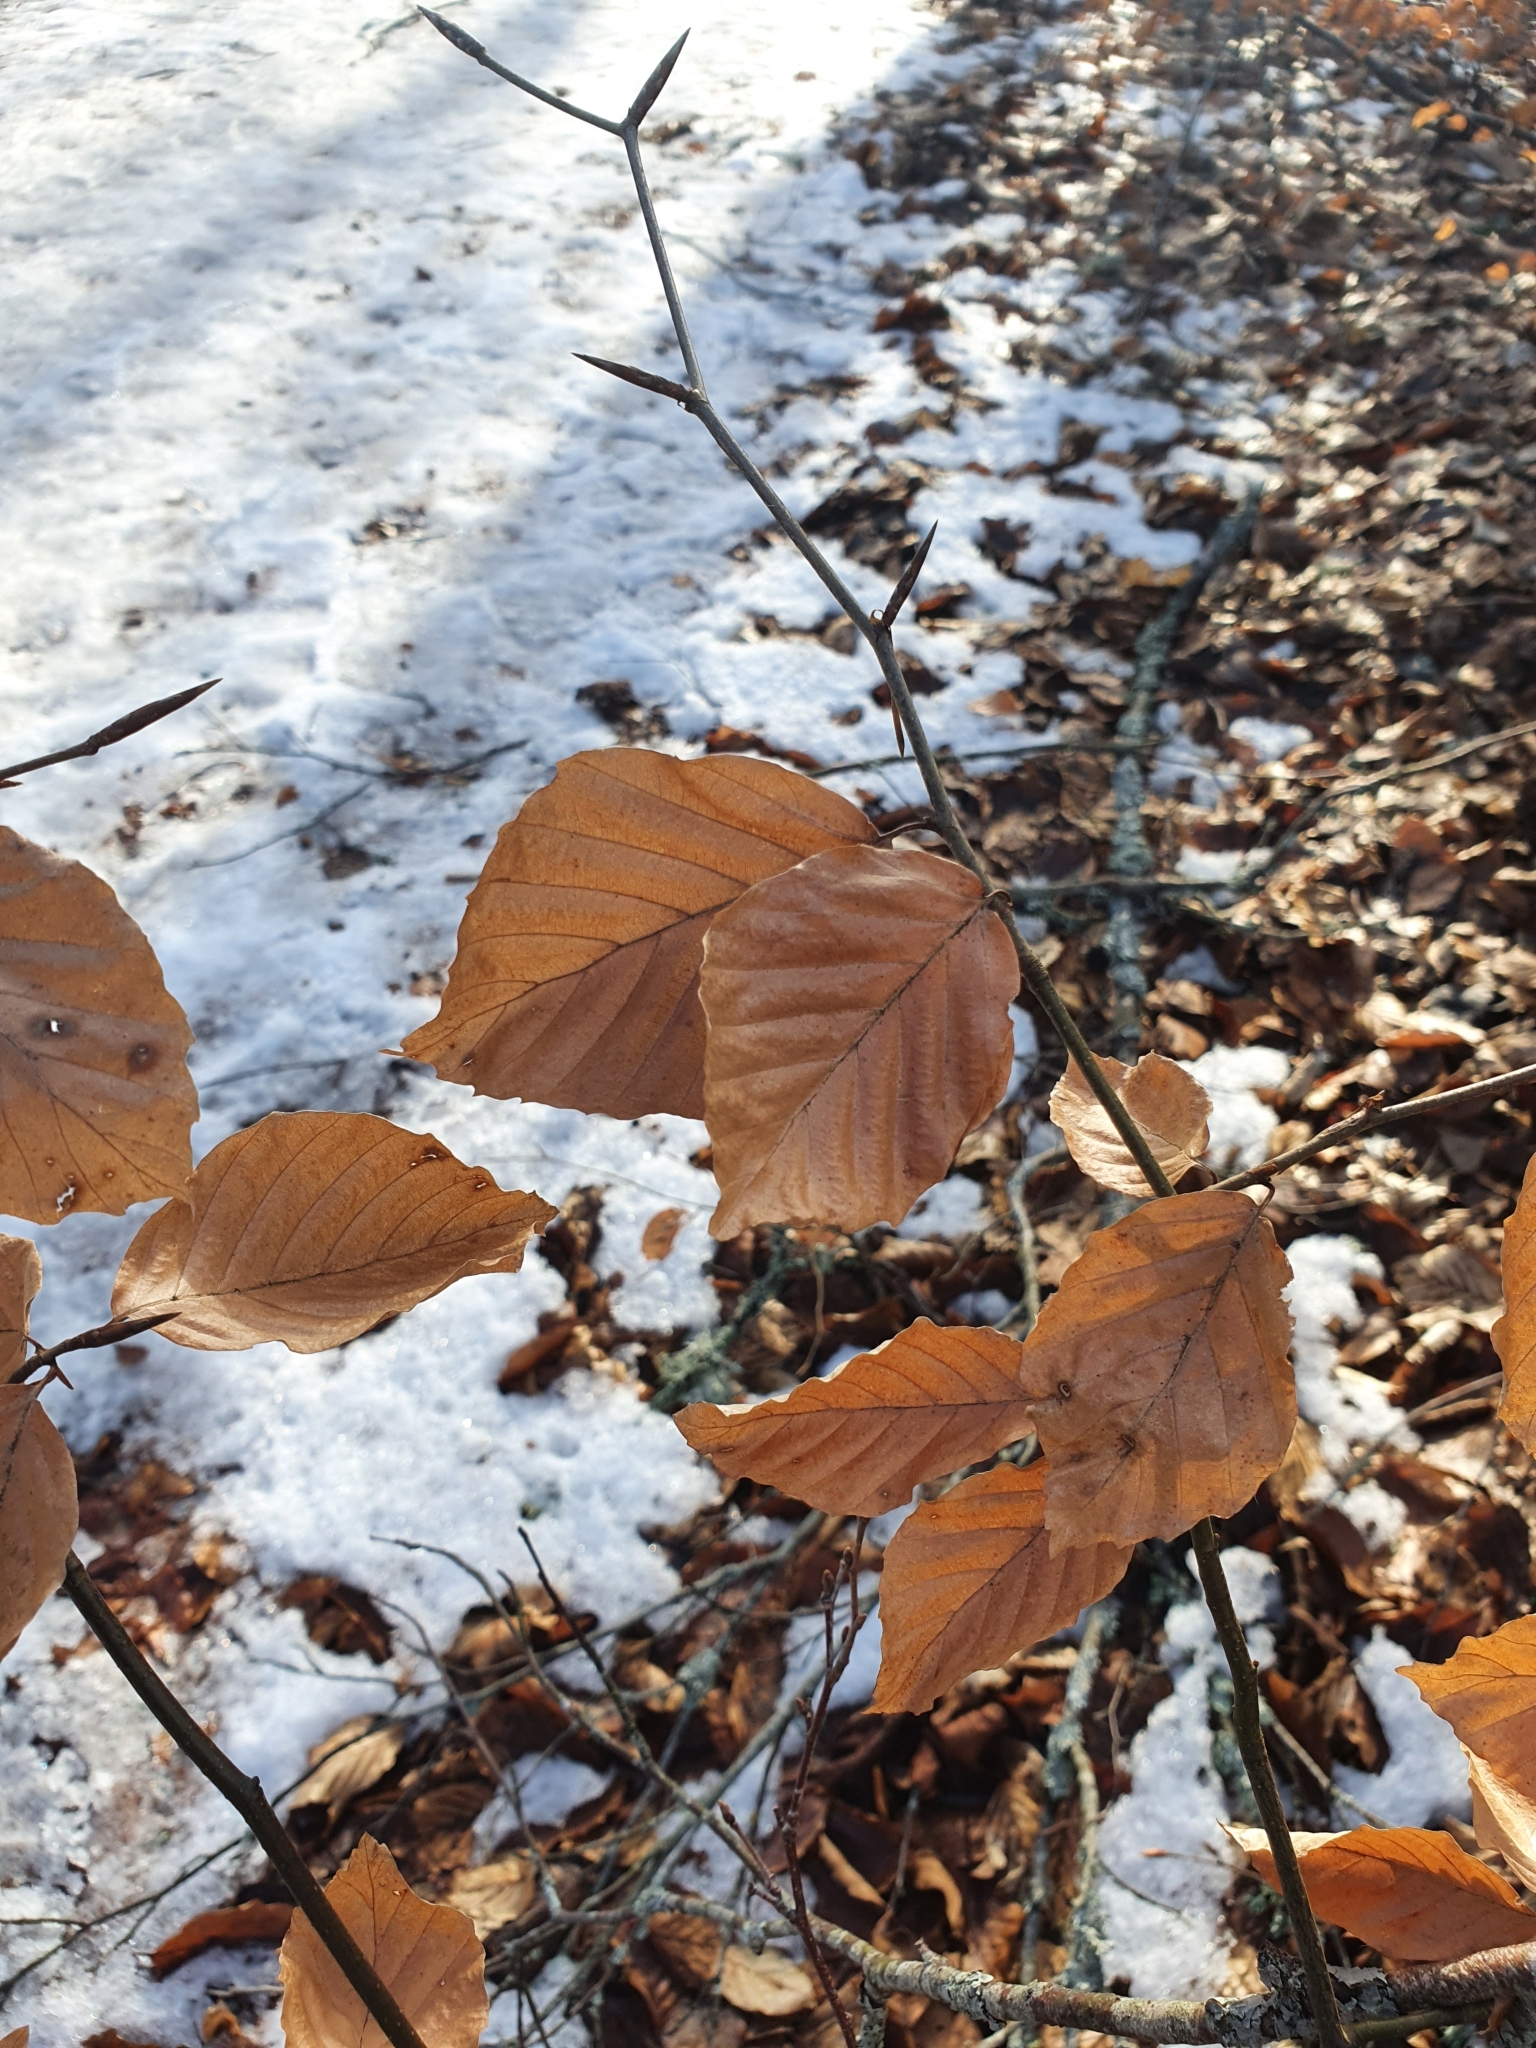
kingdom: Plantae
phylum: Tracheophyta
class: Magnoliopsida
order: Fagales
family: Fagaceae
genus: Fagus
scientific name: Fagus sylvatica
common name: Beech
